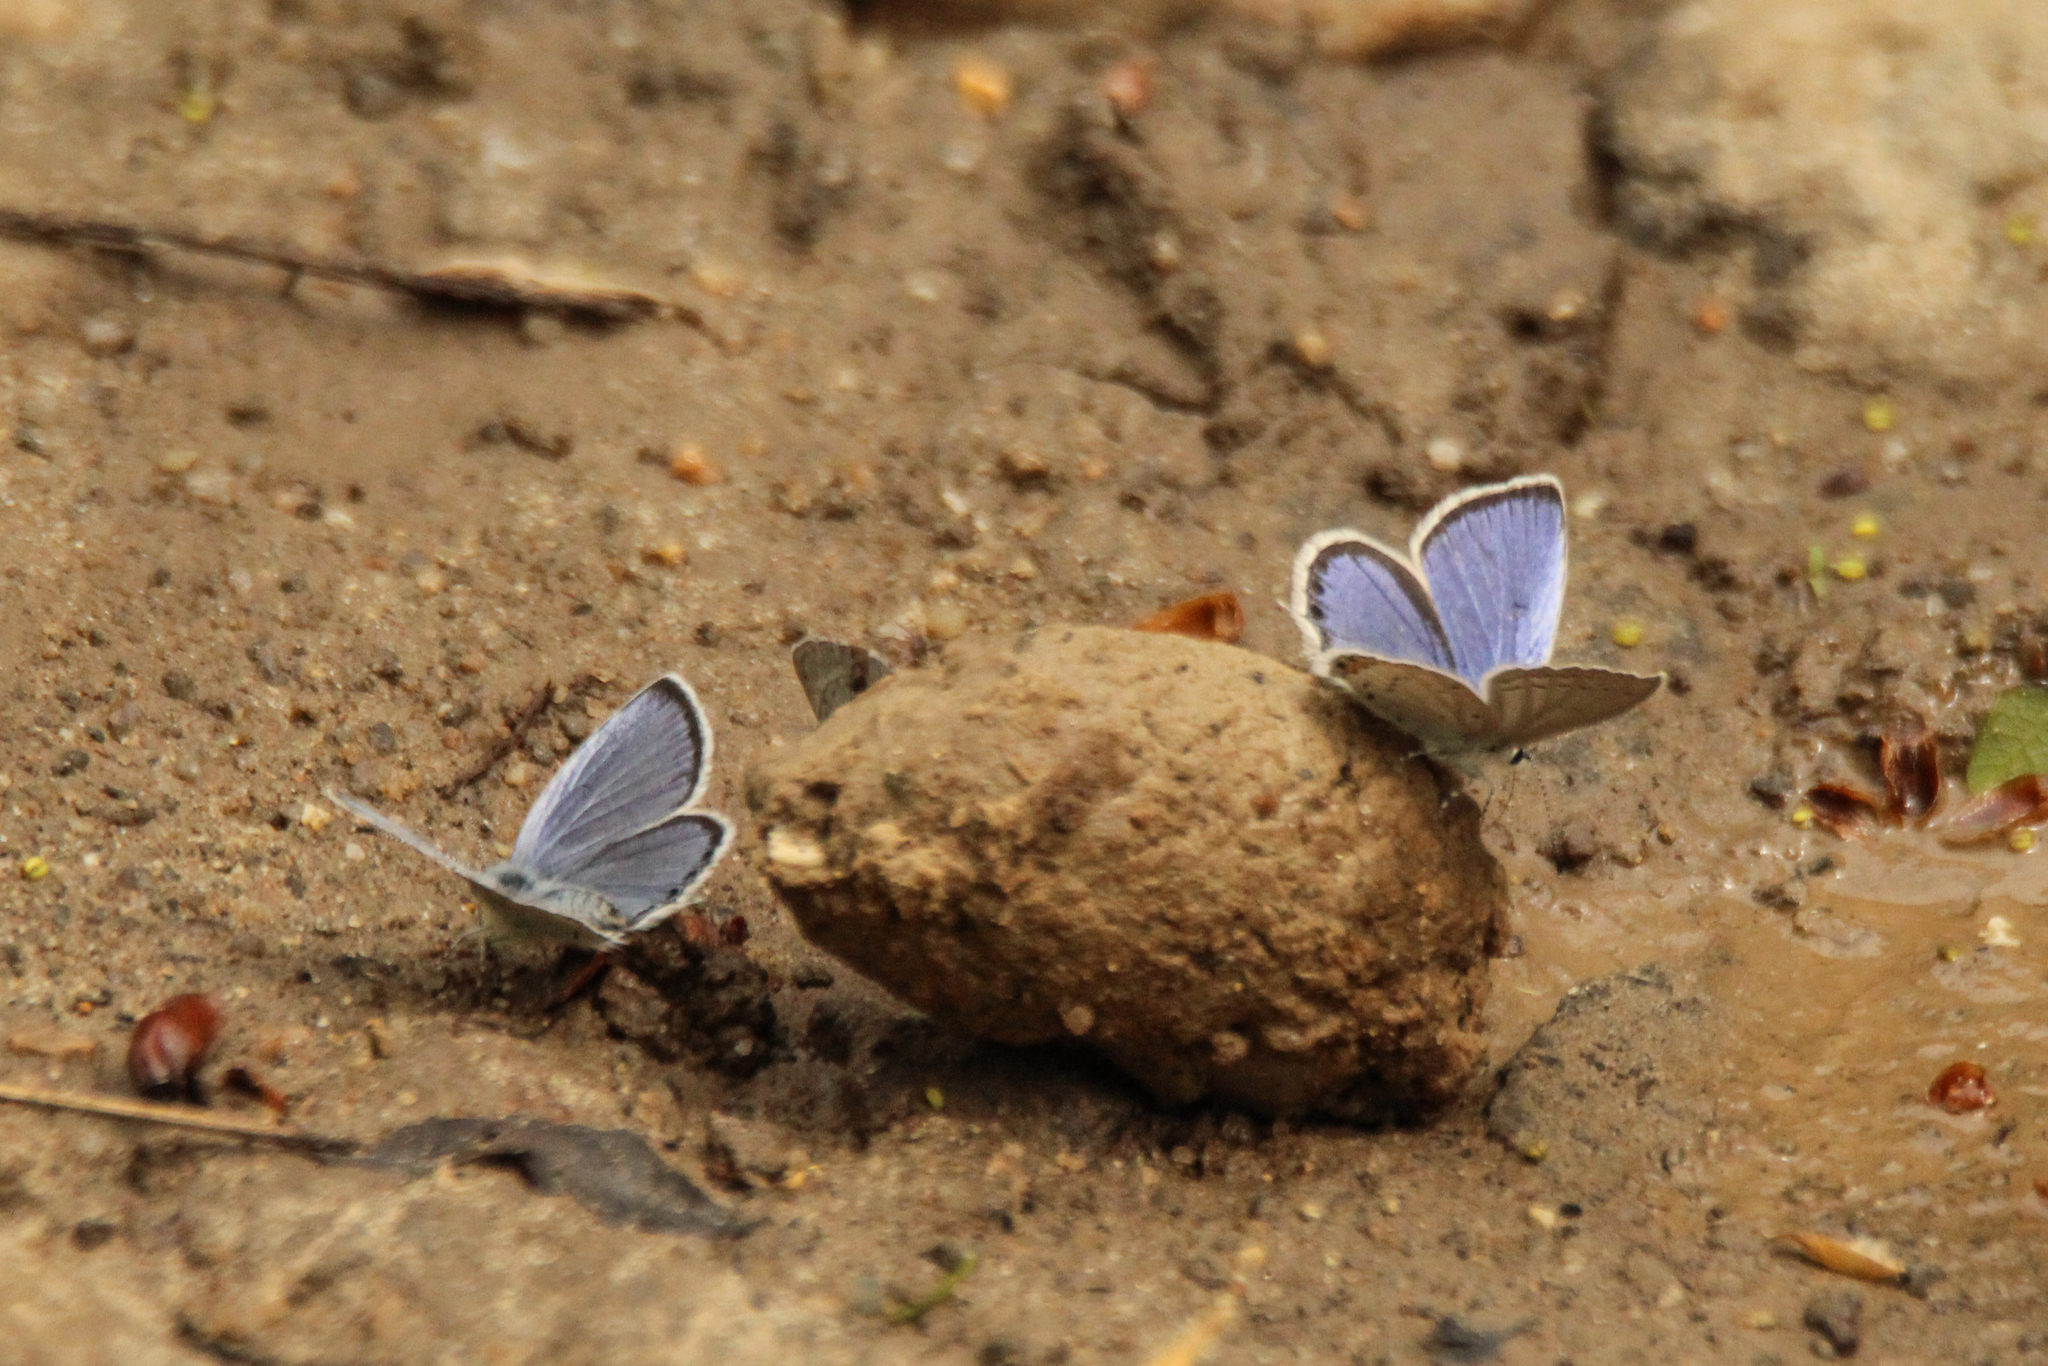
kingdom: Animalia
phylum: Arthropoda
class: Insecta
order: Lepidoptera
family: Lycaenidae
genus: Elkalyce
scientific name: Elkalyce argiades
